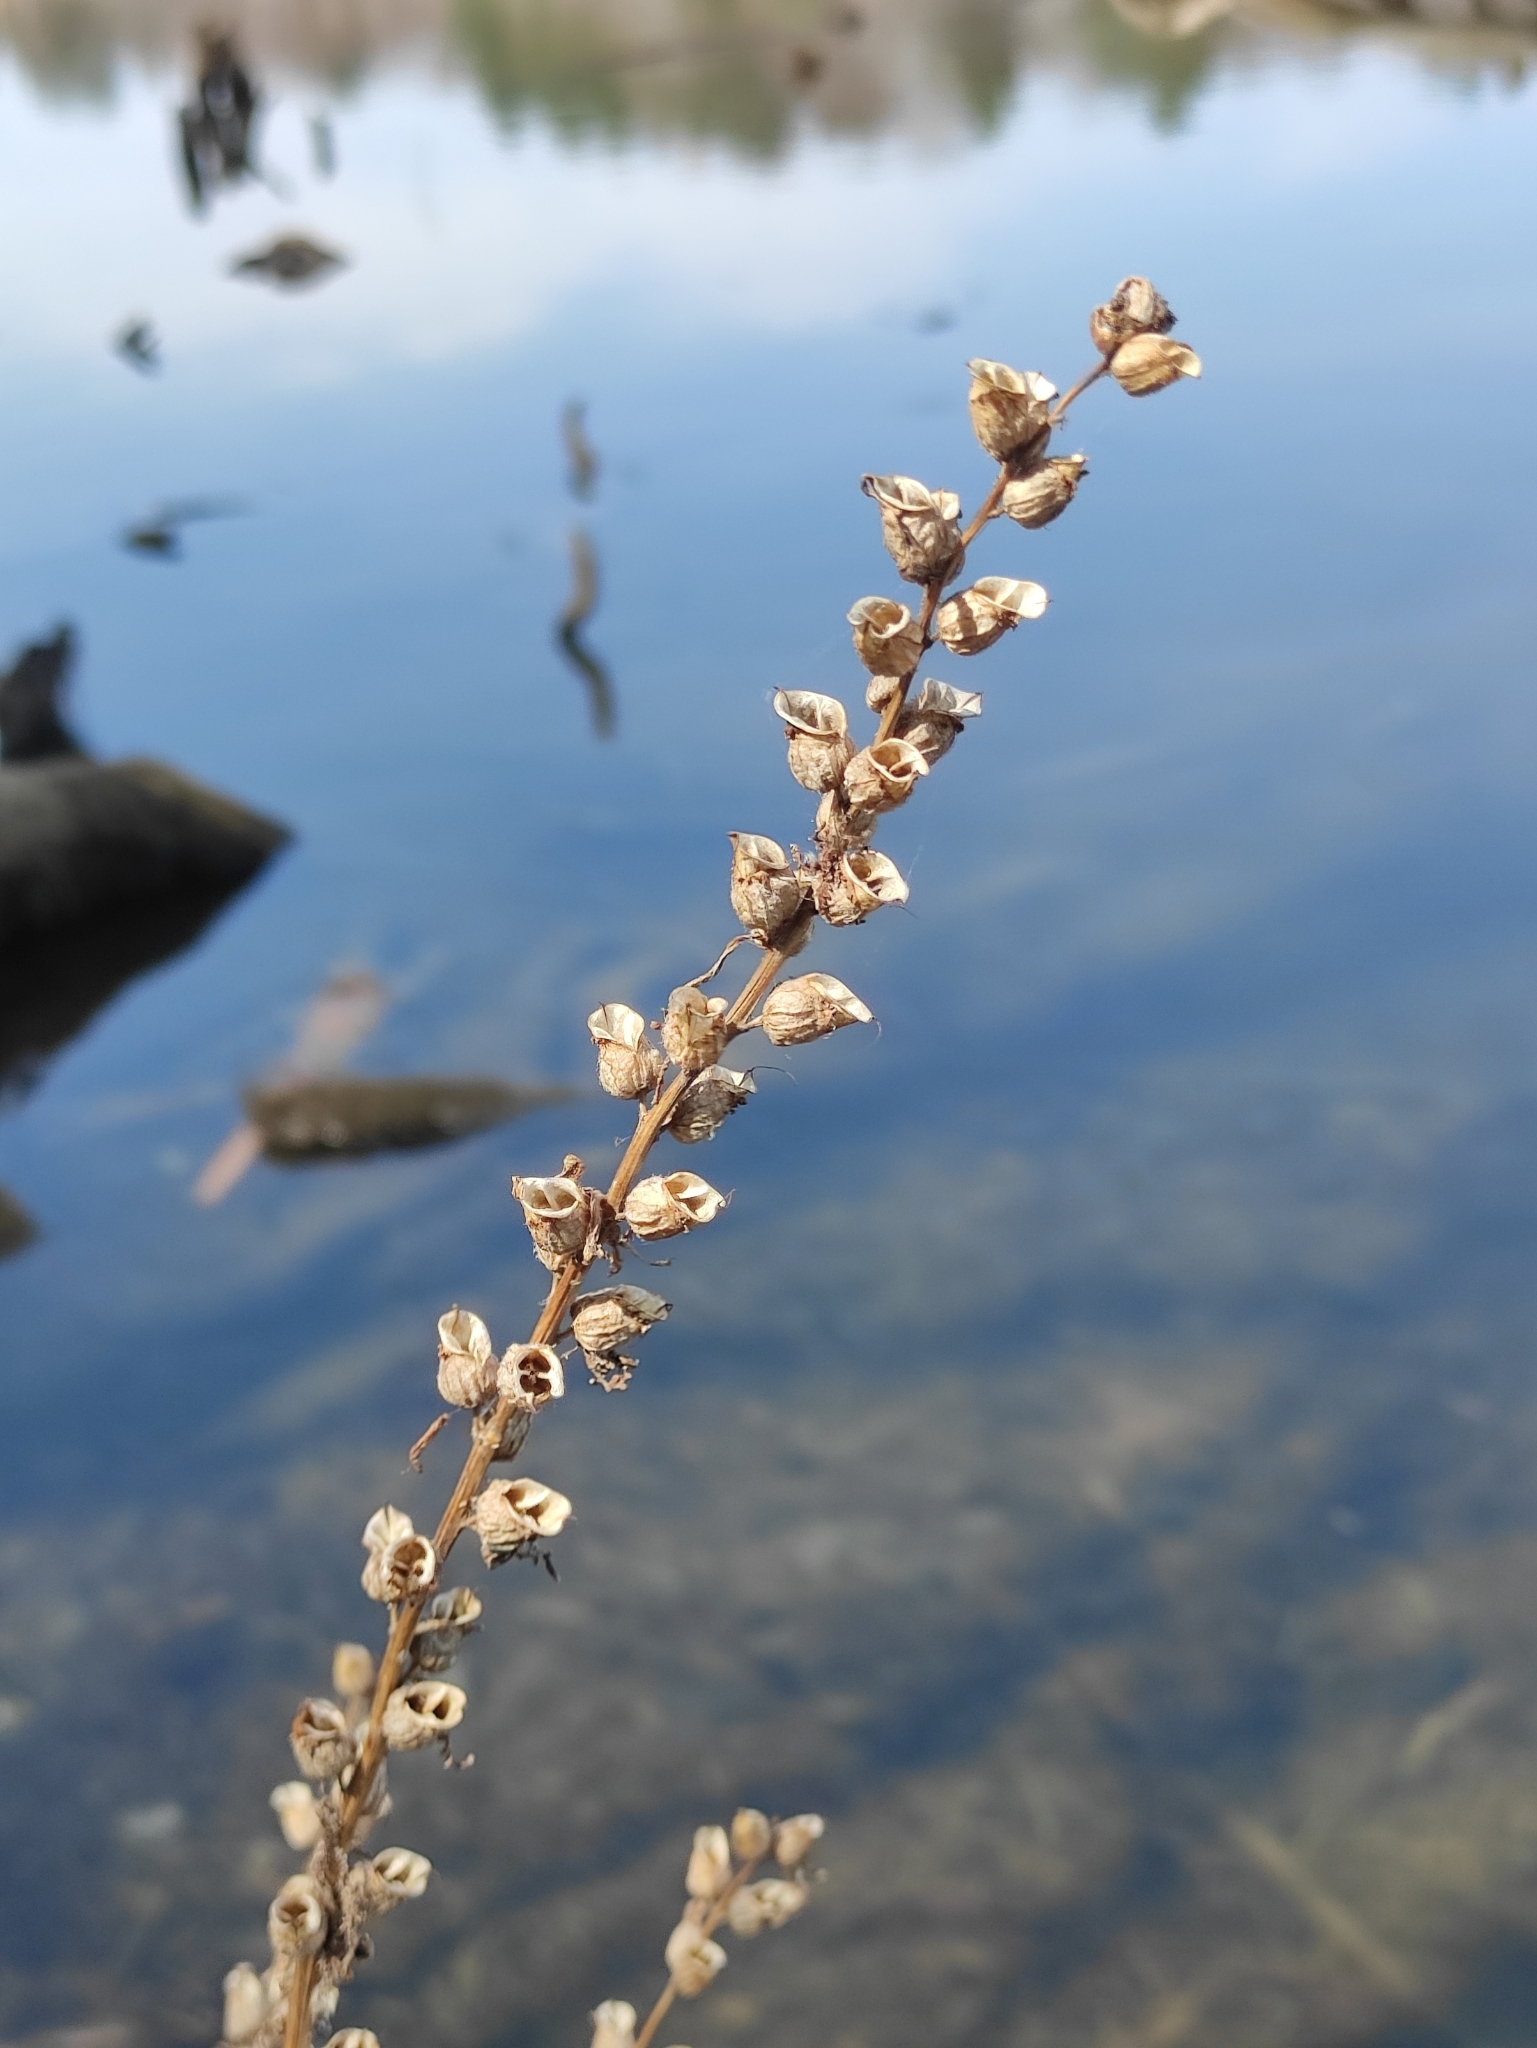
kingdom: Plantae
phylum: Tracheophyta
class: Magnoliopsida
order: Lamiales
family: Orobanchaceae
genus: Pedicularis
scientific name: Pedicularis karoi
